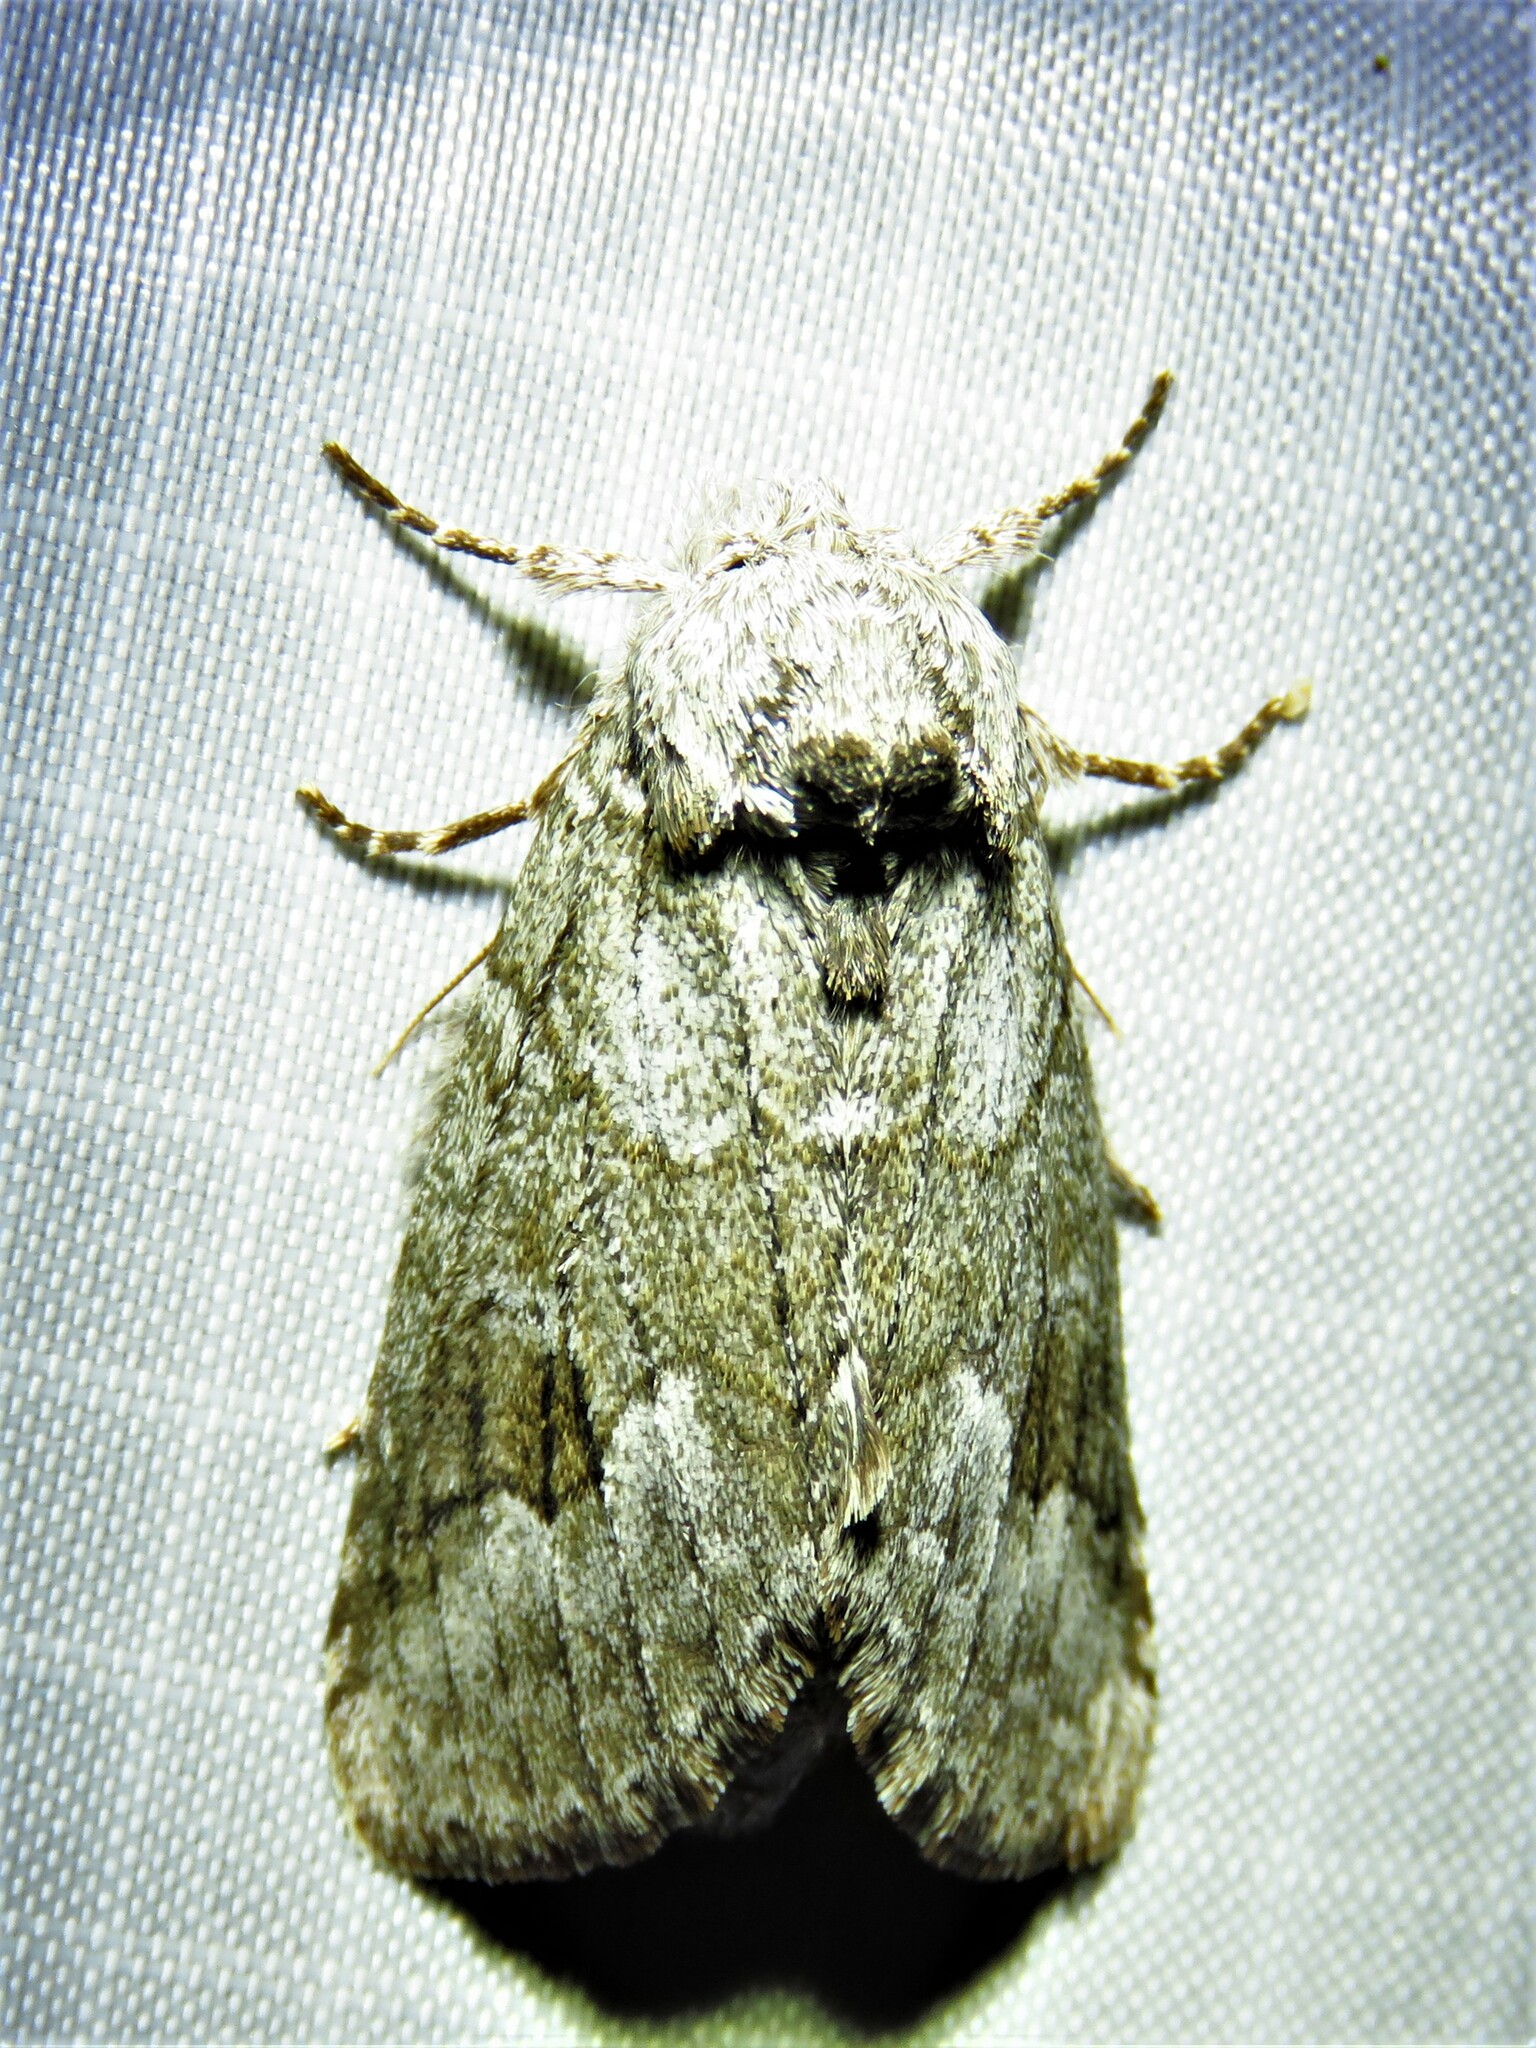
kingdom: Animalia
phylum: Arthropoda
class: Insecta
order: Lepidoptera
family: Notodontidae
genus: Lochmaeus
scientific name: Lochmaeus bilineata
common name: Double-lined prominent
